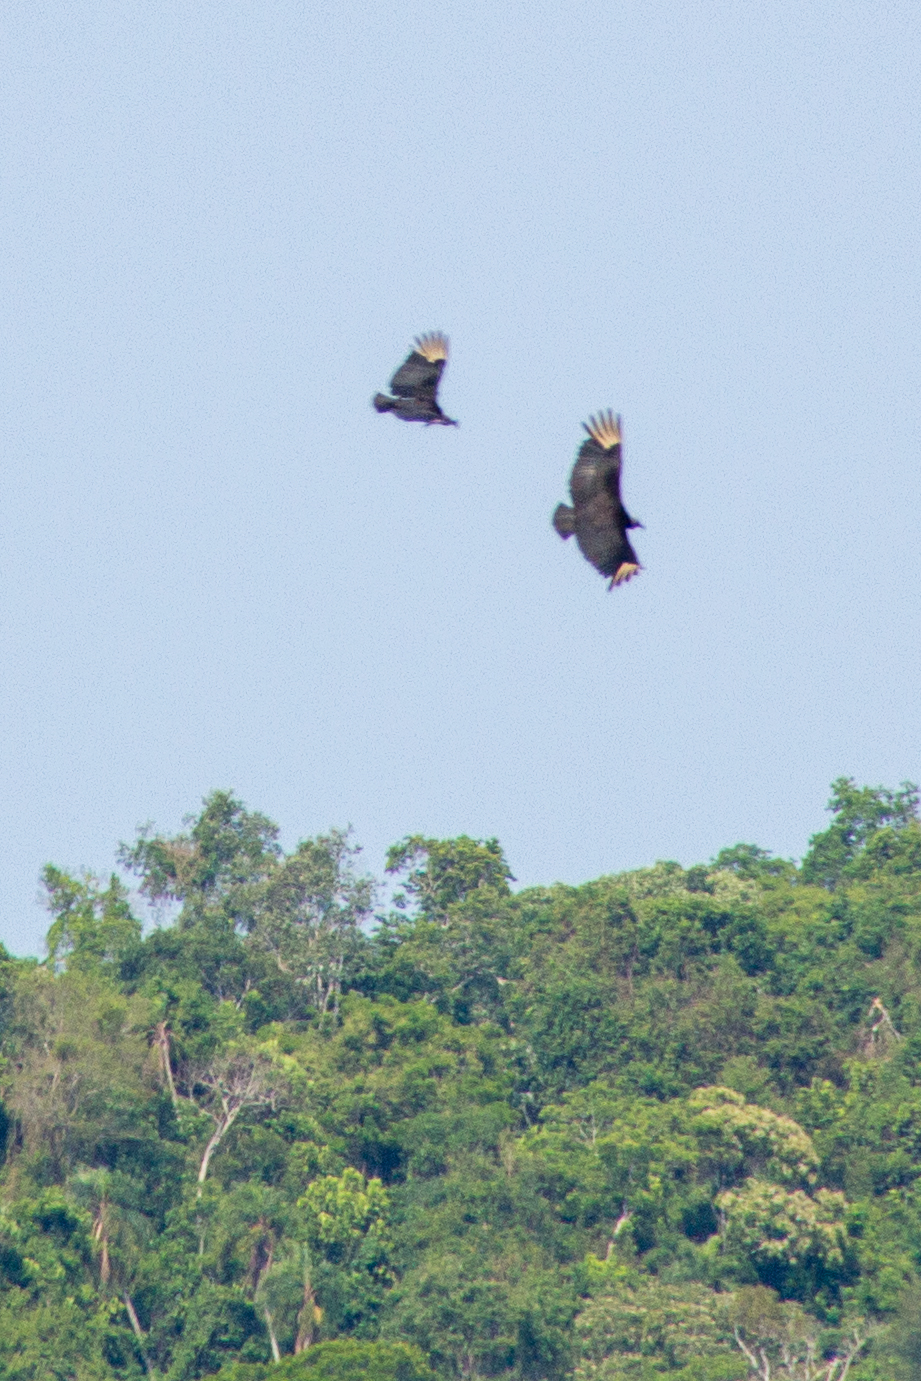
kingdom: Animalia
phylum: Chordata
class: Aves
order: Accipitriformes
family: Cathartidae
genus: Coragyps
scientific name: Coragyps atratus
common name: Black vulture
